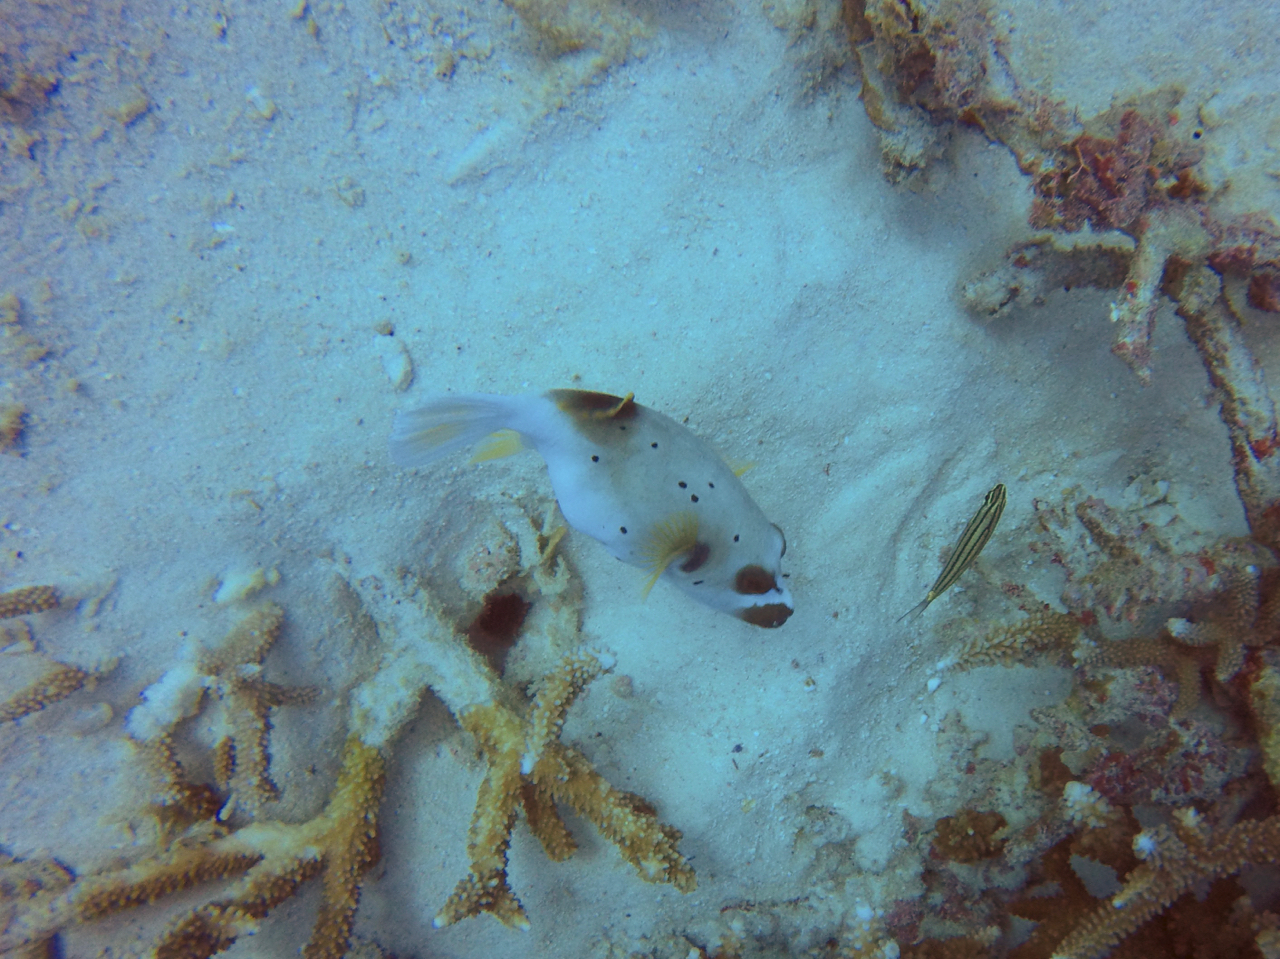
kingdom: Animalia
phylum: Chordata
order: Tetraodontiformes
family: Tetraodontidae
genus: Arothron
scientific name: Arothron nigropunctatus
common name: Black spotted blow fish
